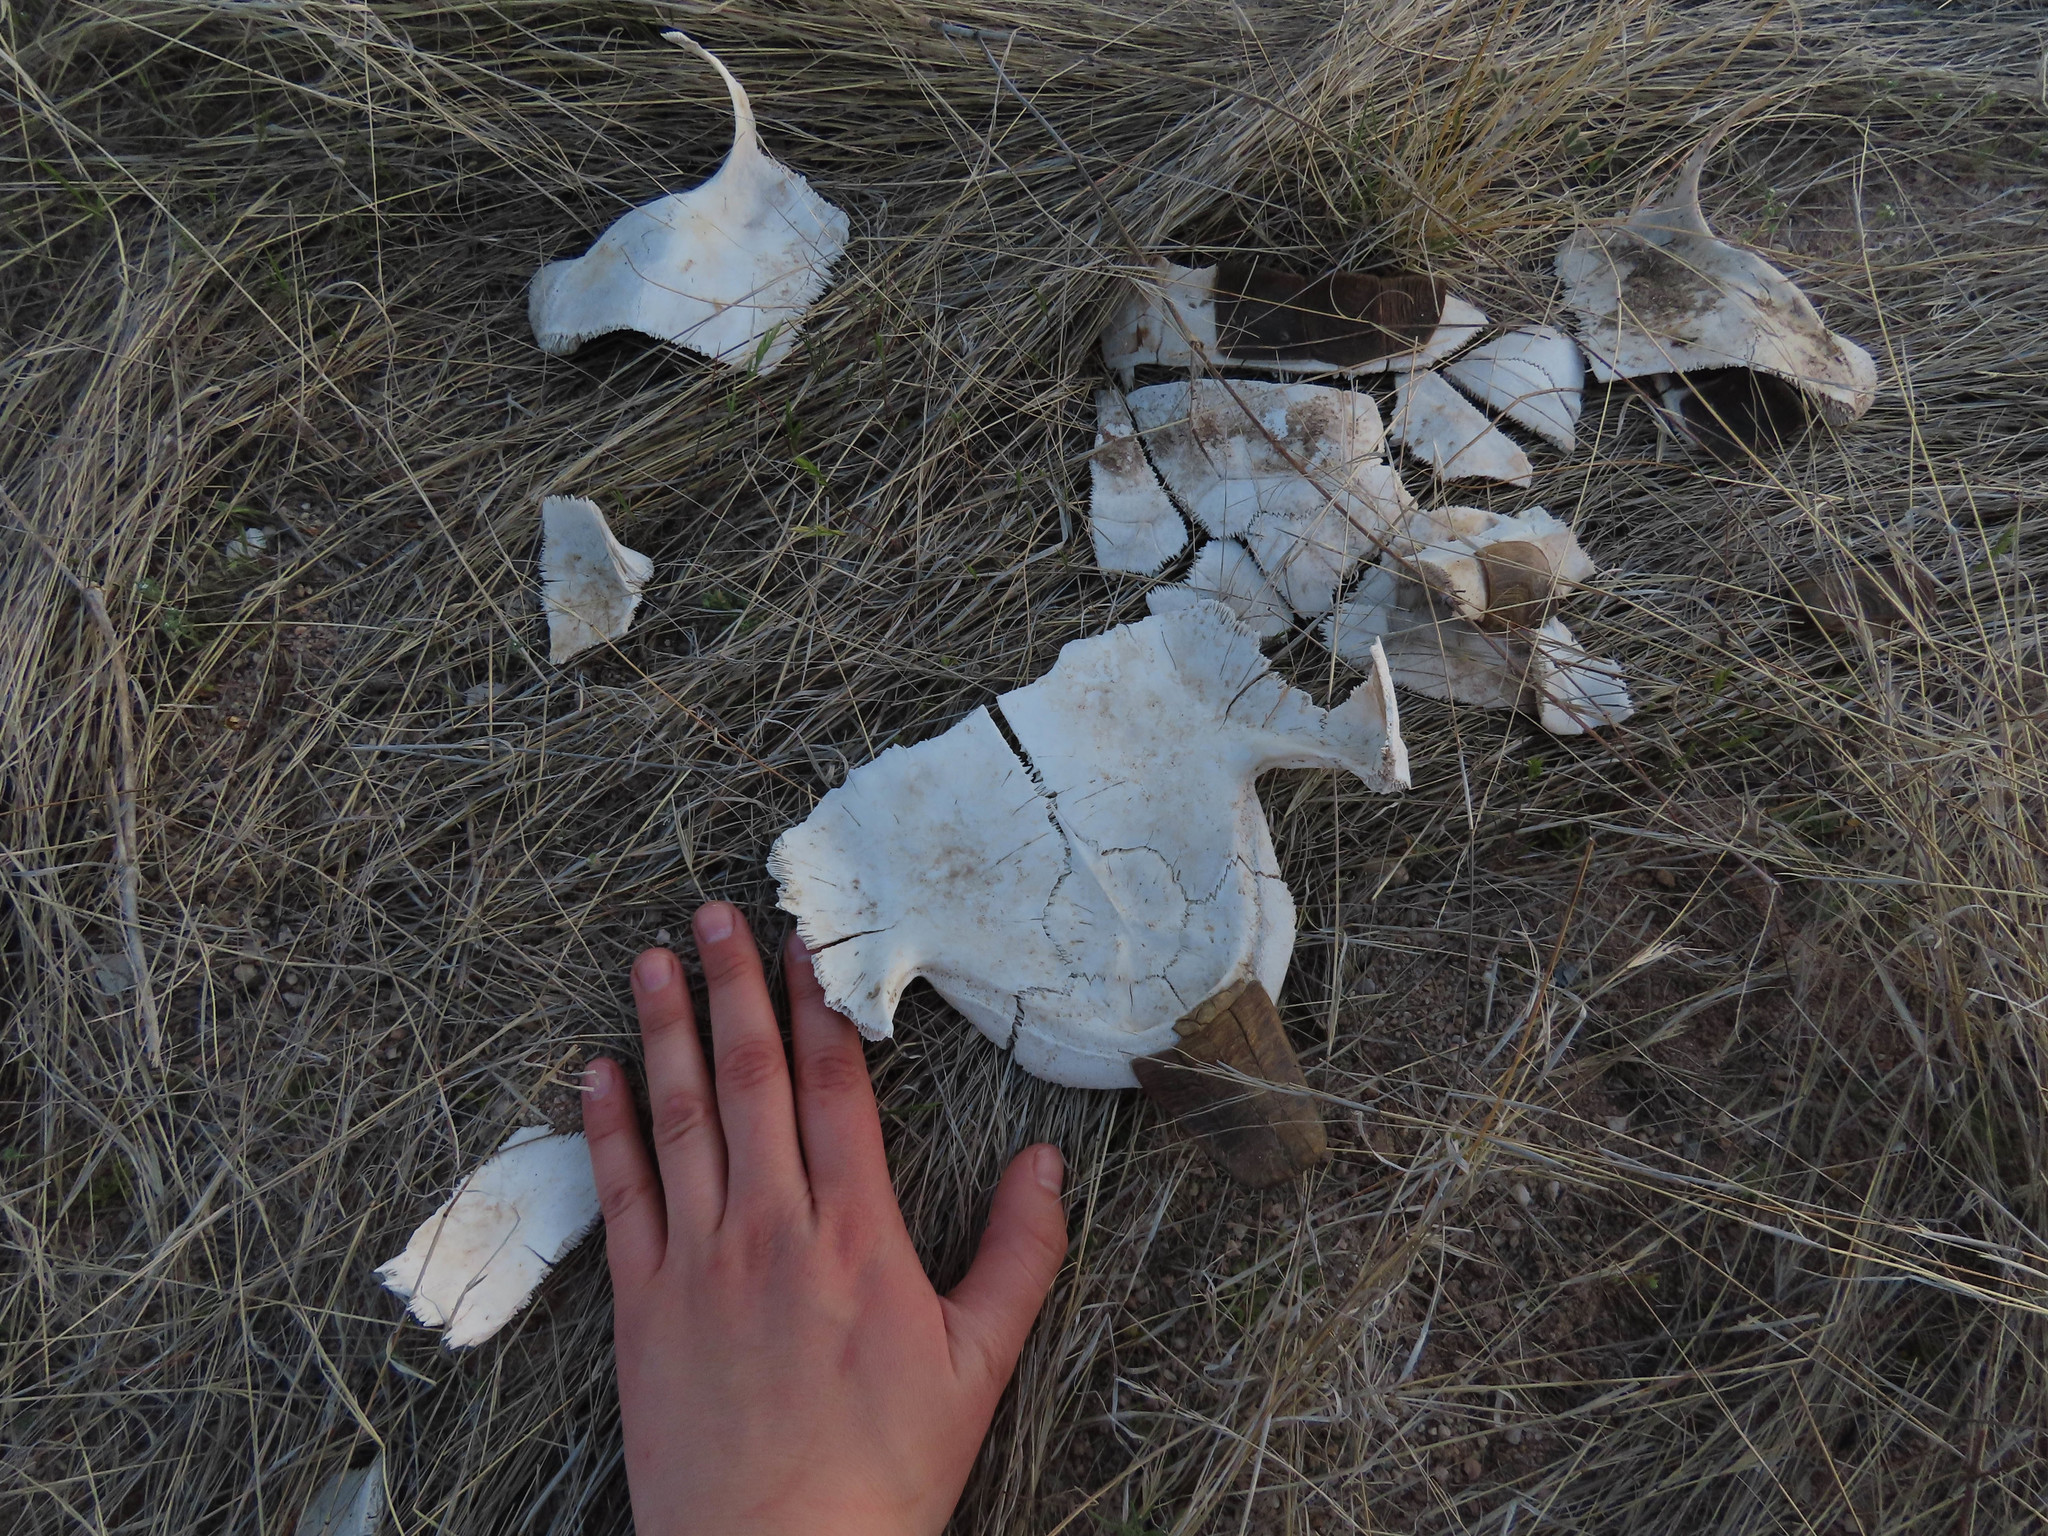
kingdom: Animalia
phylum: Chordata
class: Testudines
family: Testudinidae
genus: Gopherus
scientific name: Gopherus morafkai
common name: Sonoran desert tortoise
